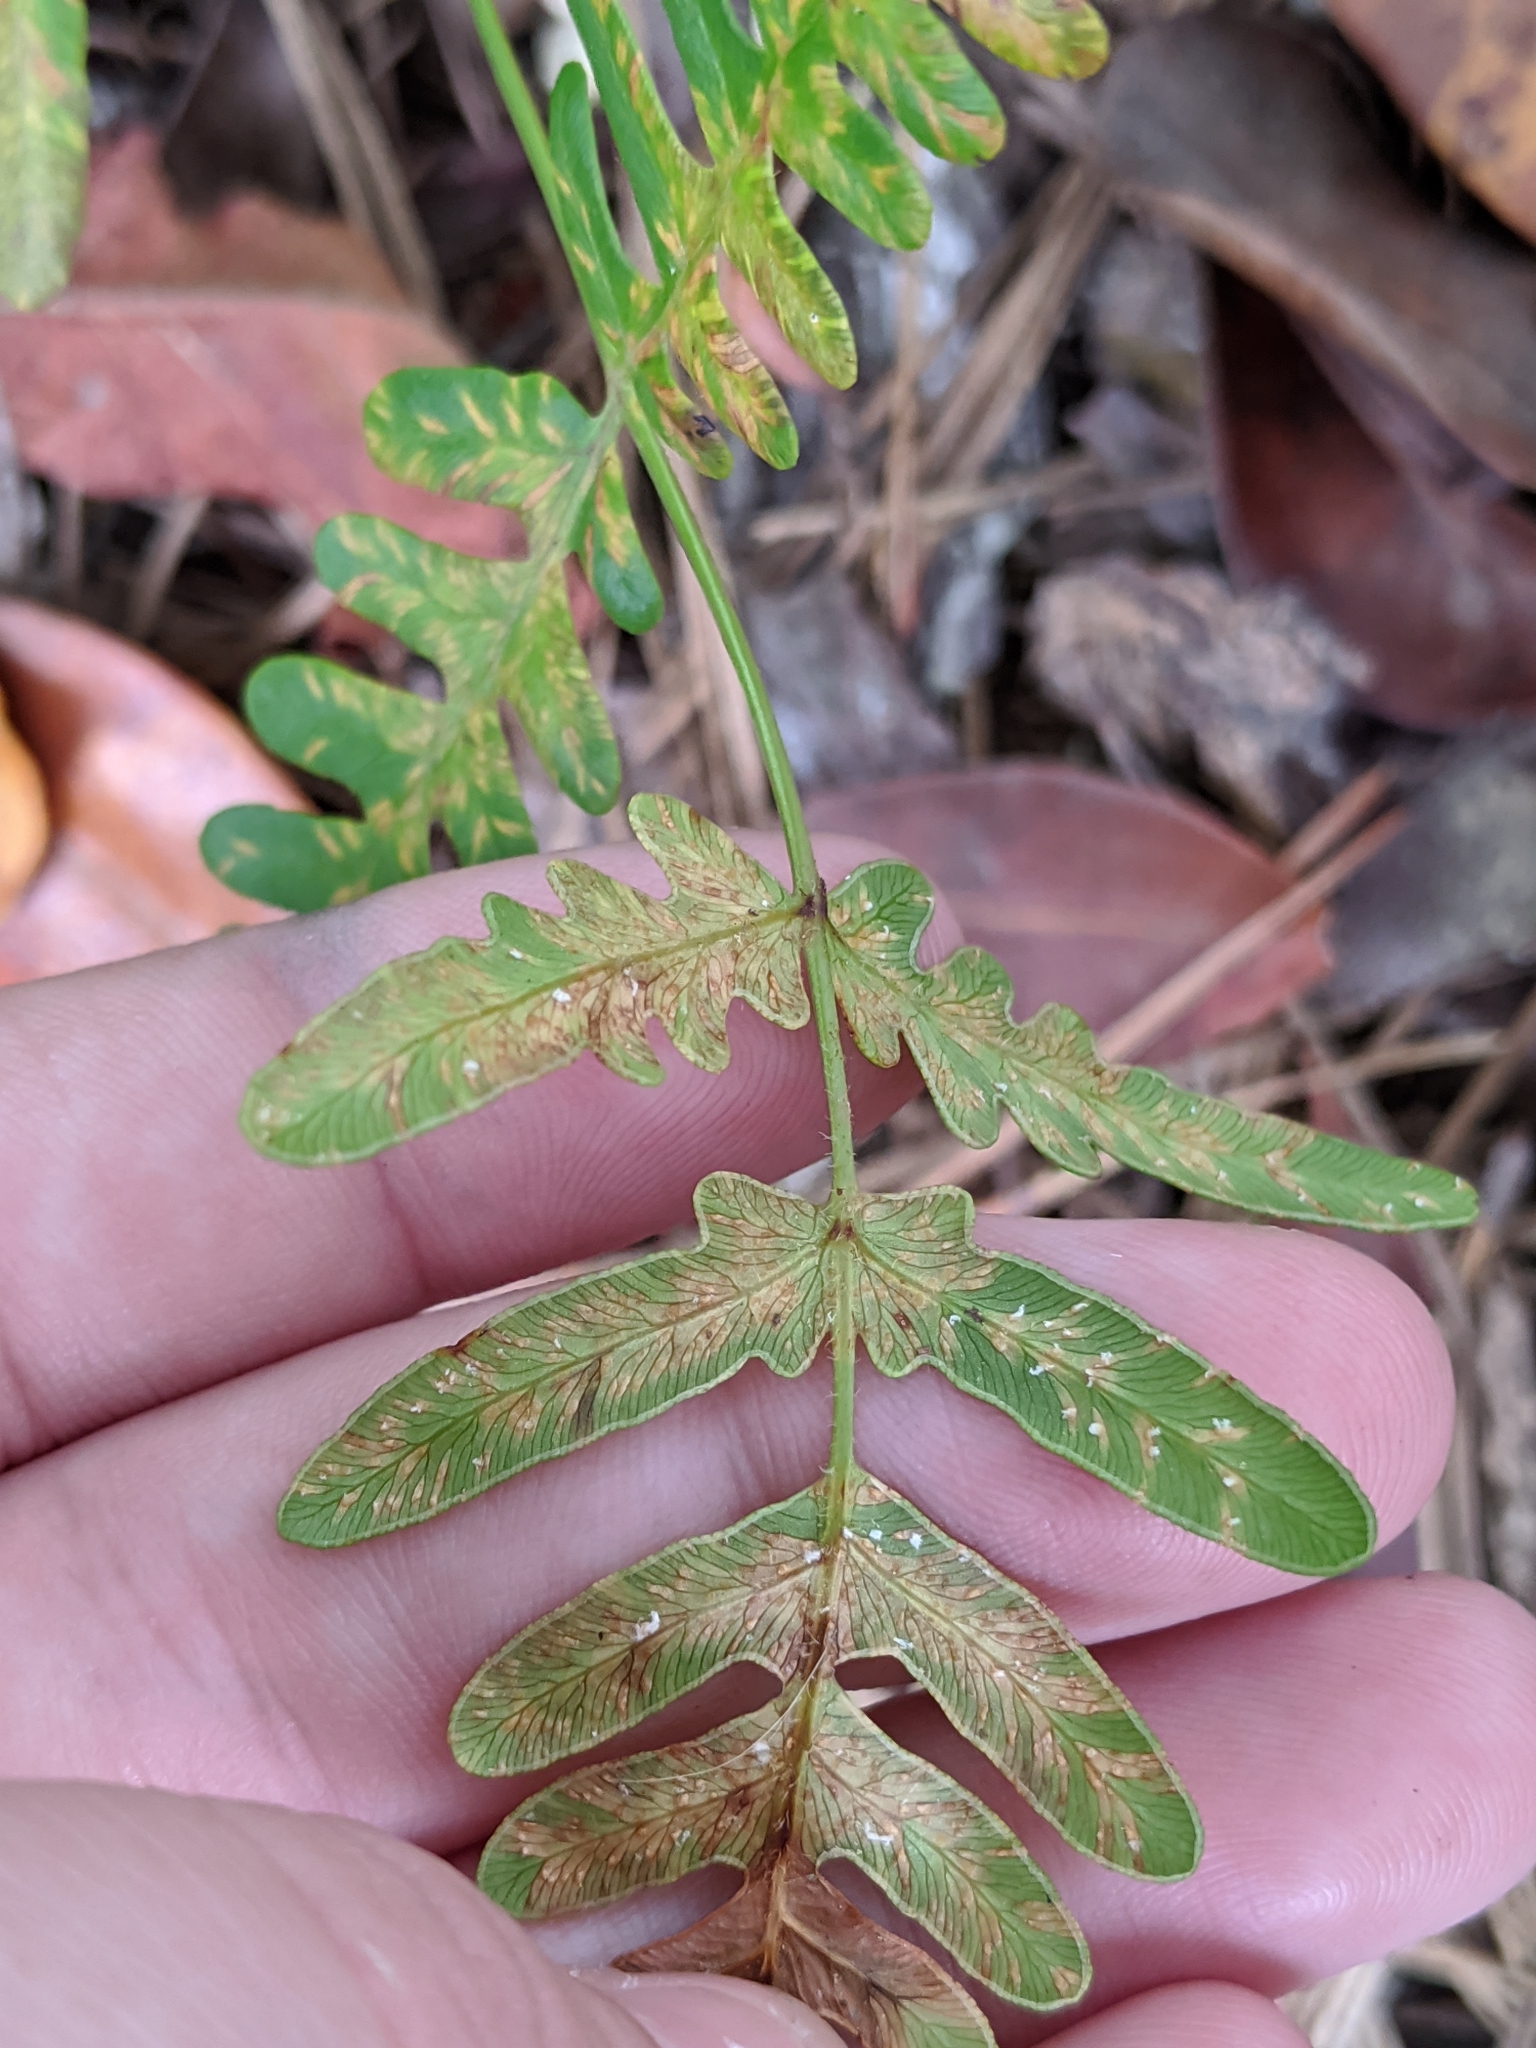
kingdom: Plantae
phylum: Tracheophyta
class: Polypodiopsida
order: Polypodiales
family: Dennstaedtiaceae
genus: Pteridium
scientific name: Pteridium aquilinum
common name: Bracken
